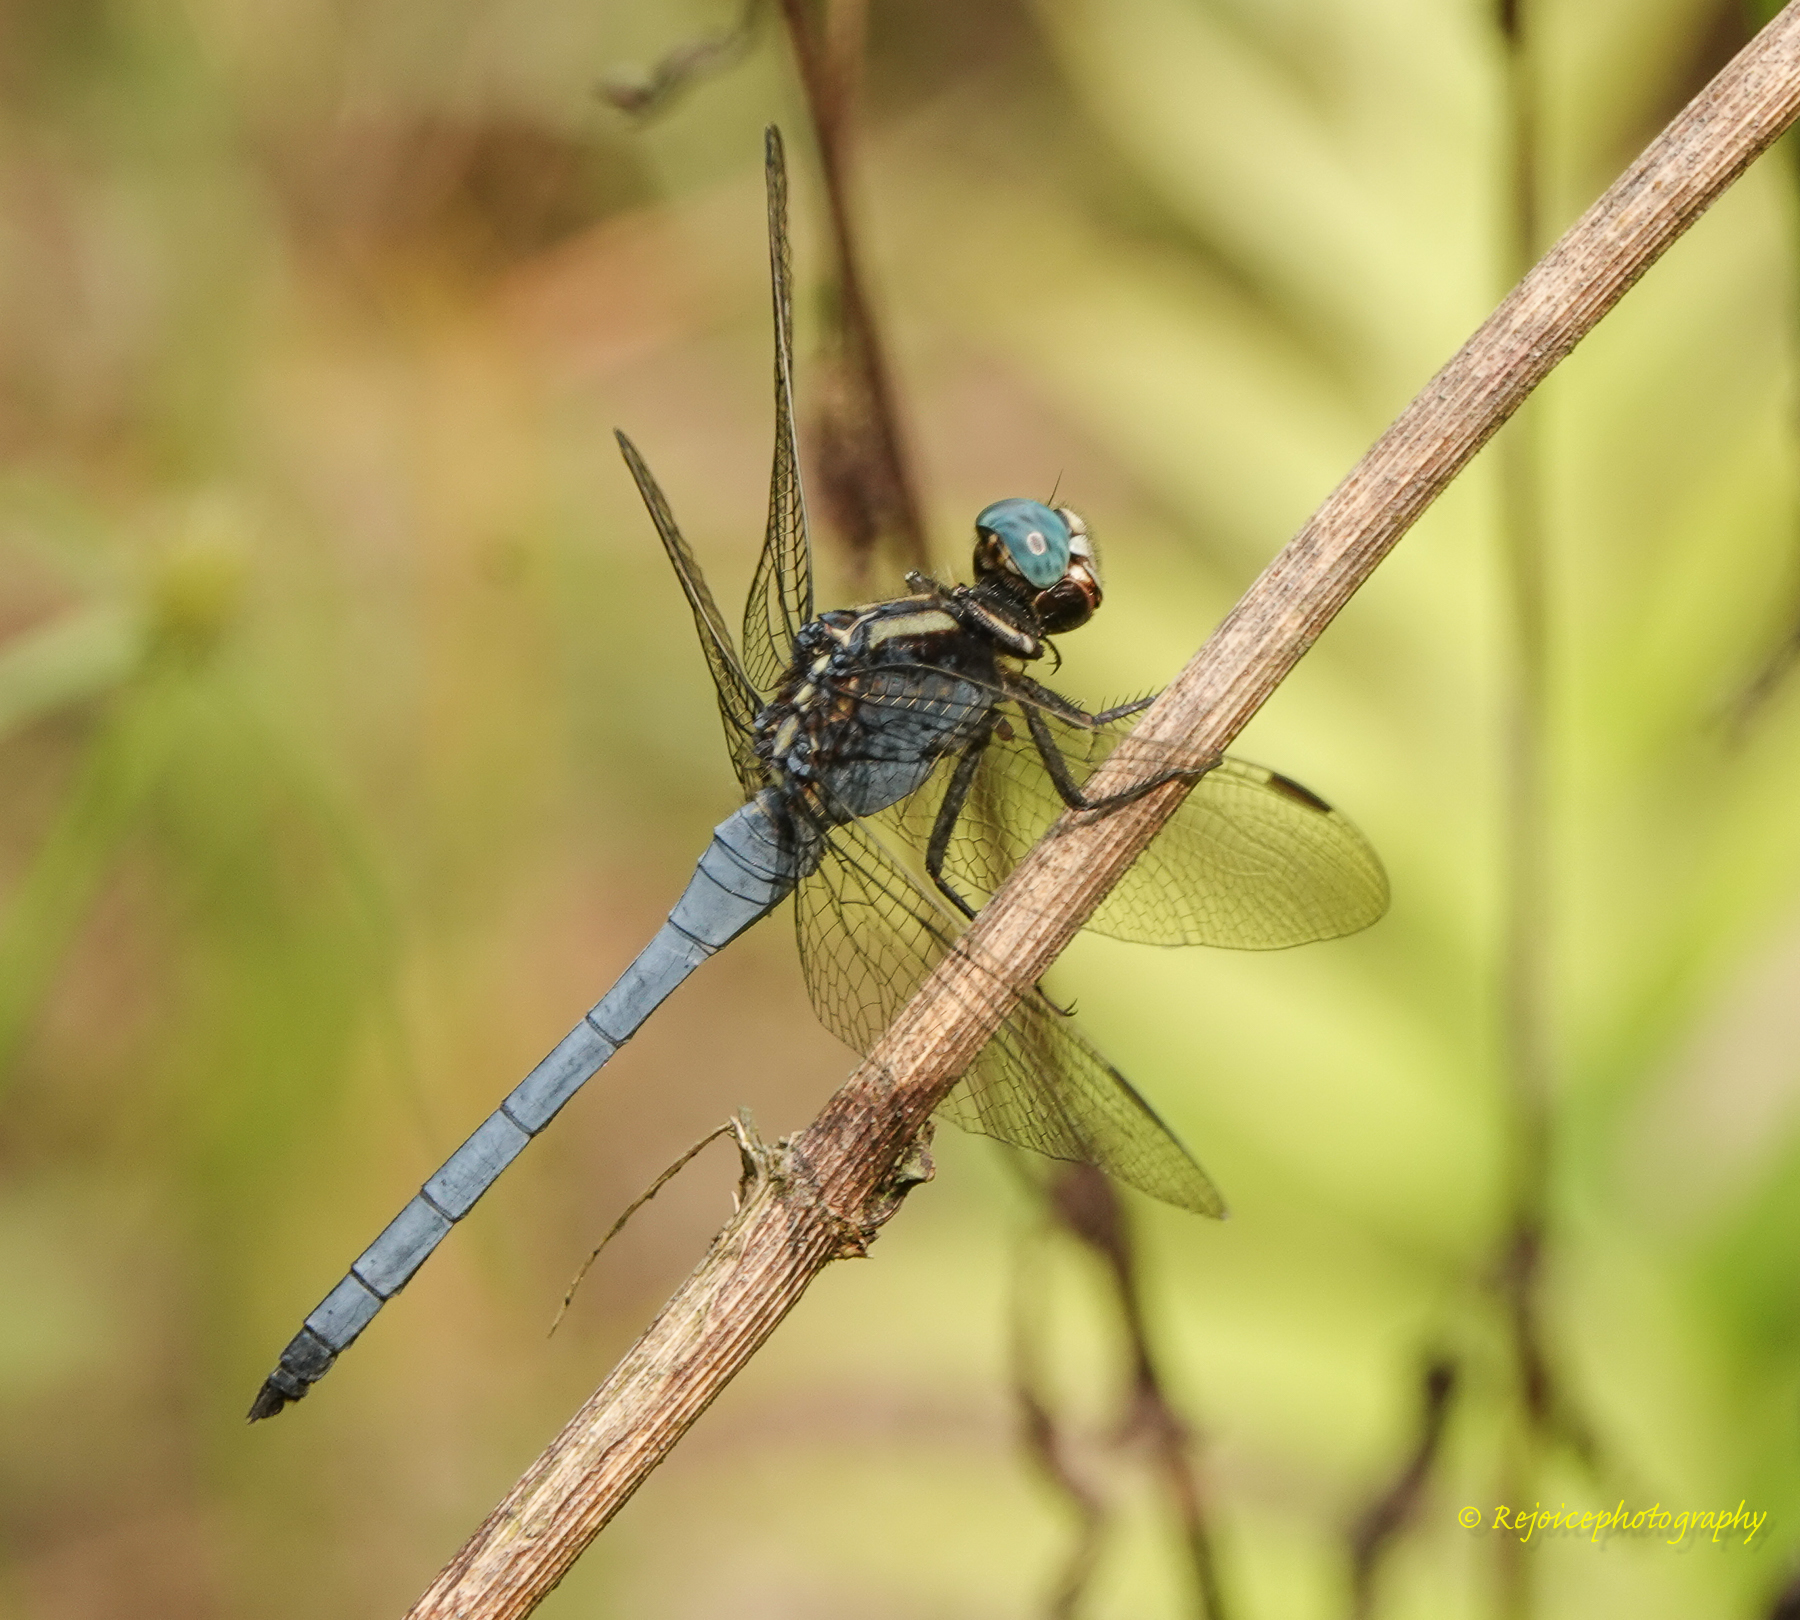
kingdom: Animalia
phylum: Arthropoda
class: Insecta
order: Odonata
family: Libellulidae
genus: Orthetrum
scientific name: Orthetrum luzonicum
